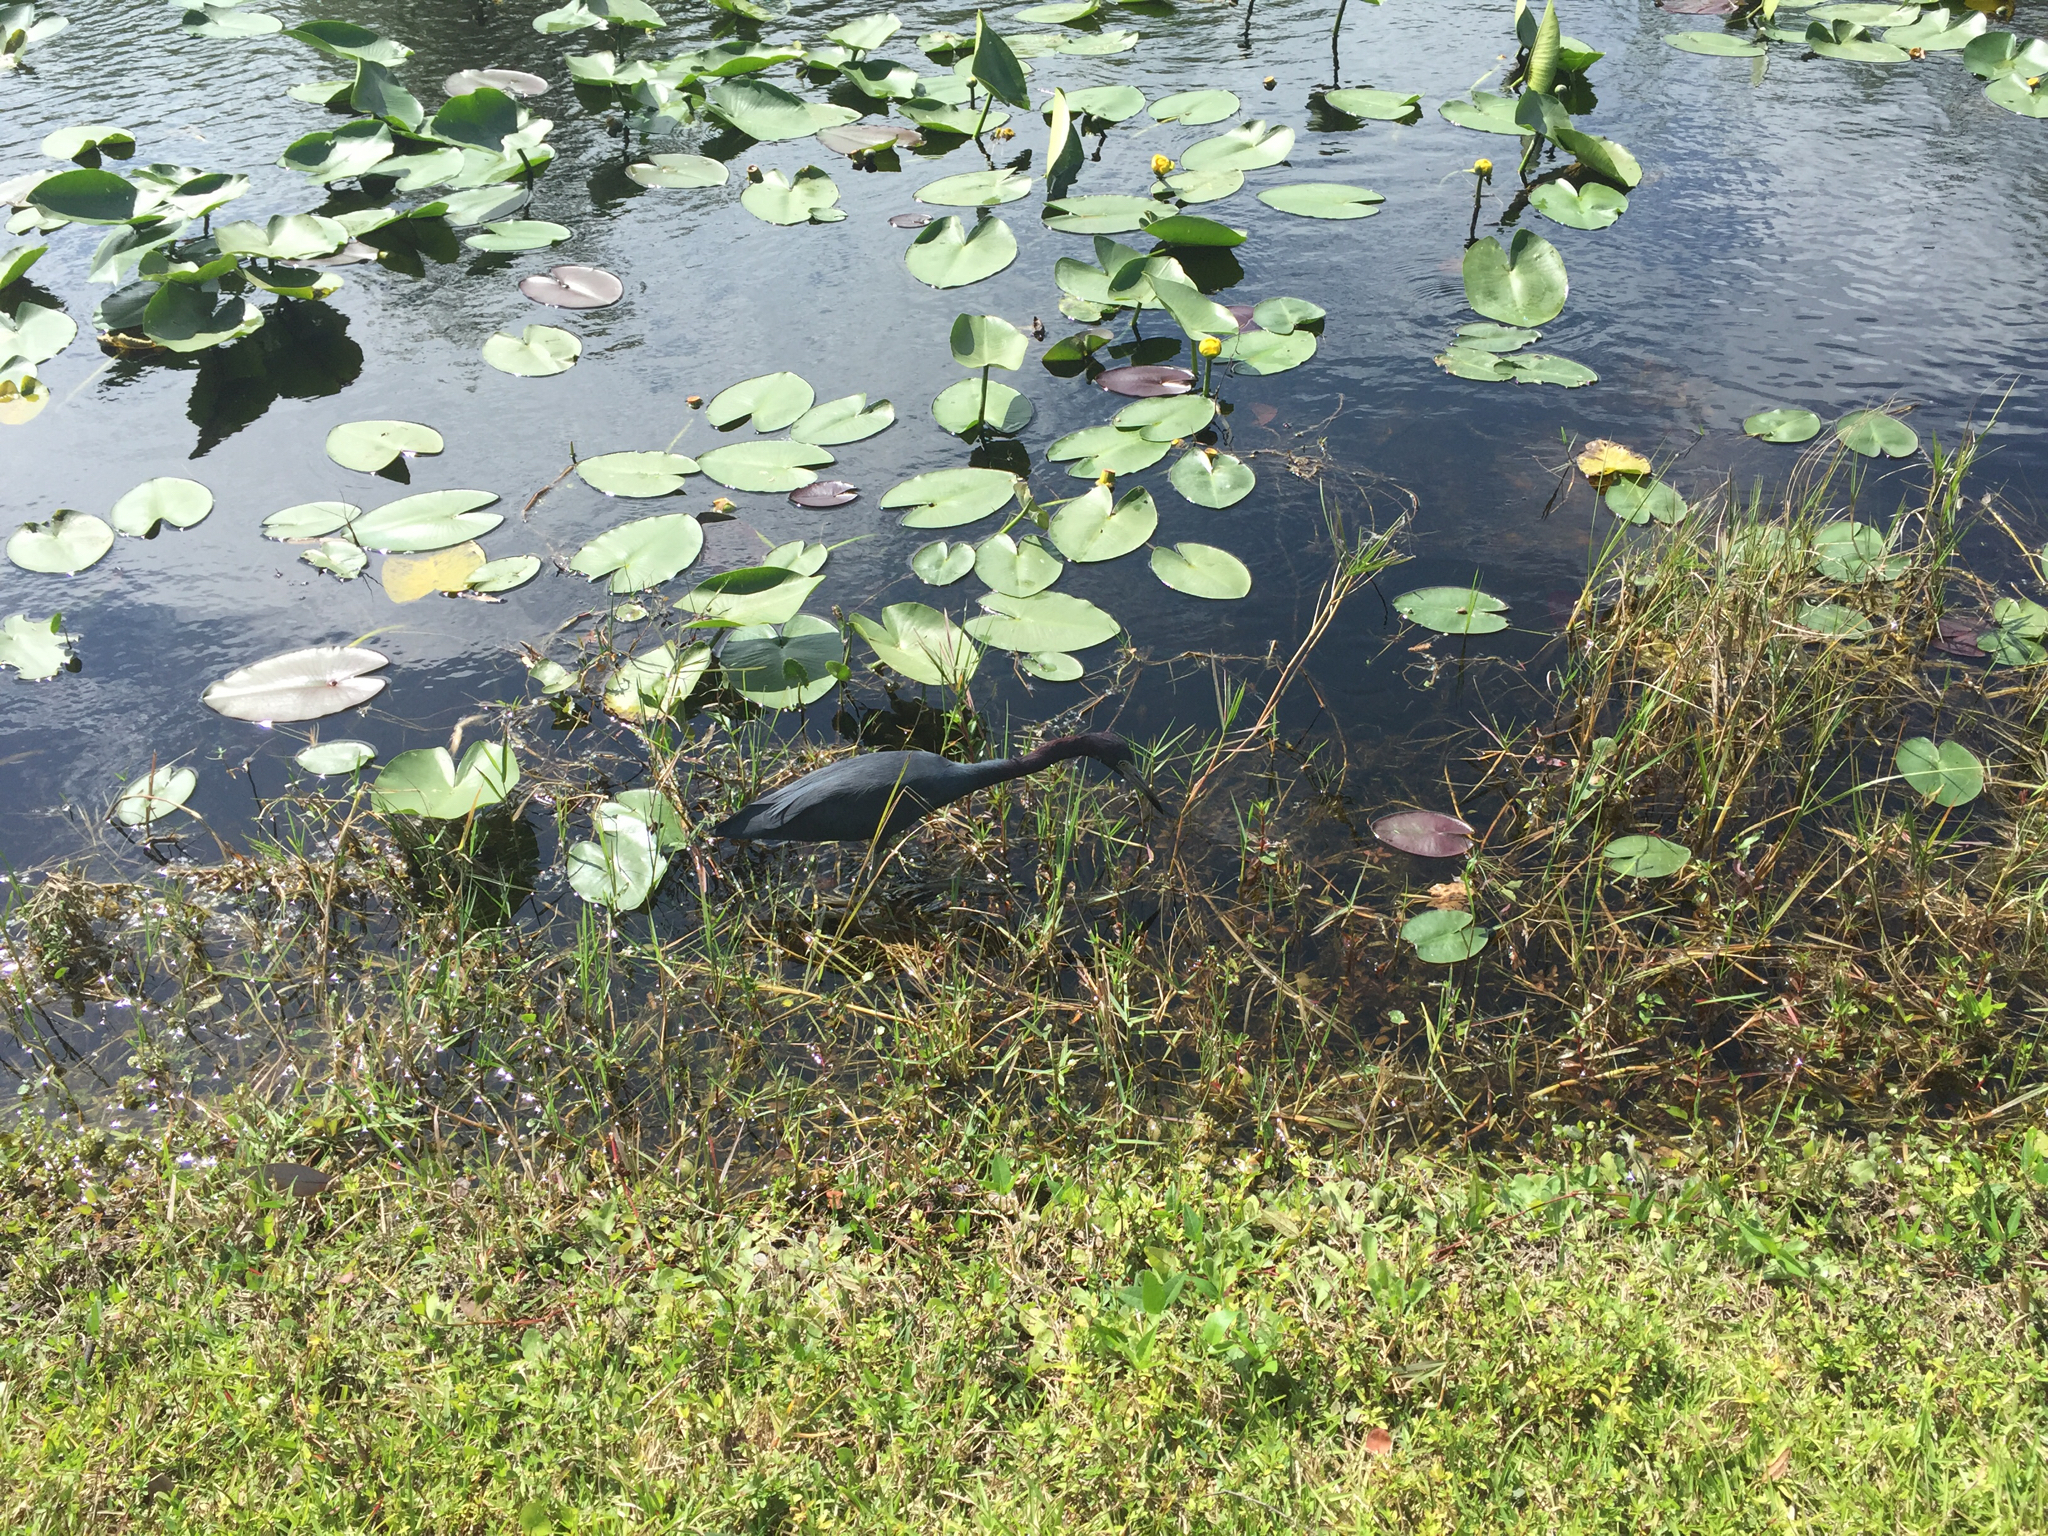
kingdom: Animalia
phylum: Chordata
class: Aves
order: Pelecaniformes
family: Ardeidae
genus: Egretta
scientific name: Egretta caerulea
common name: Little blue heron
